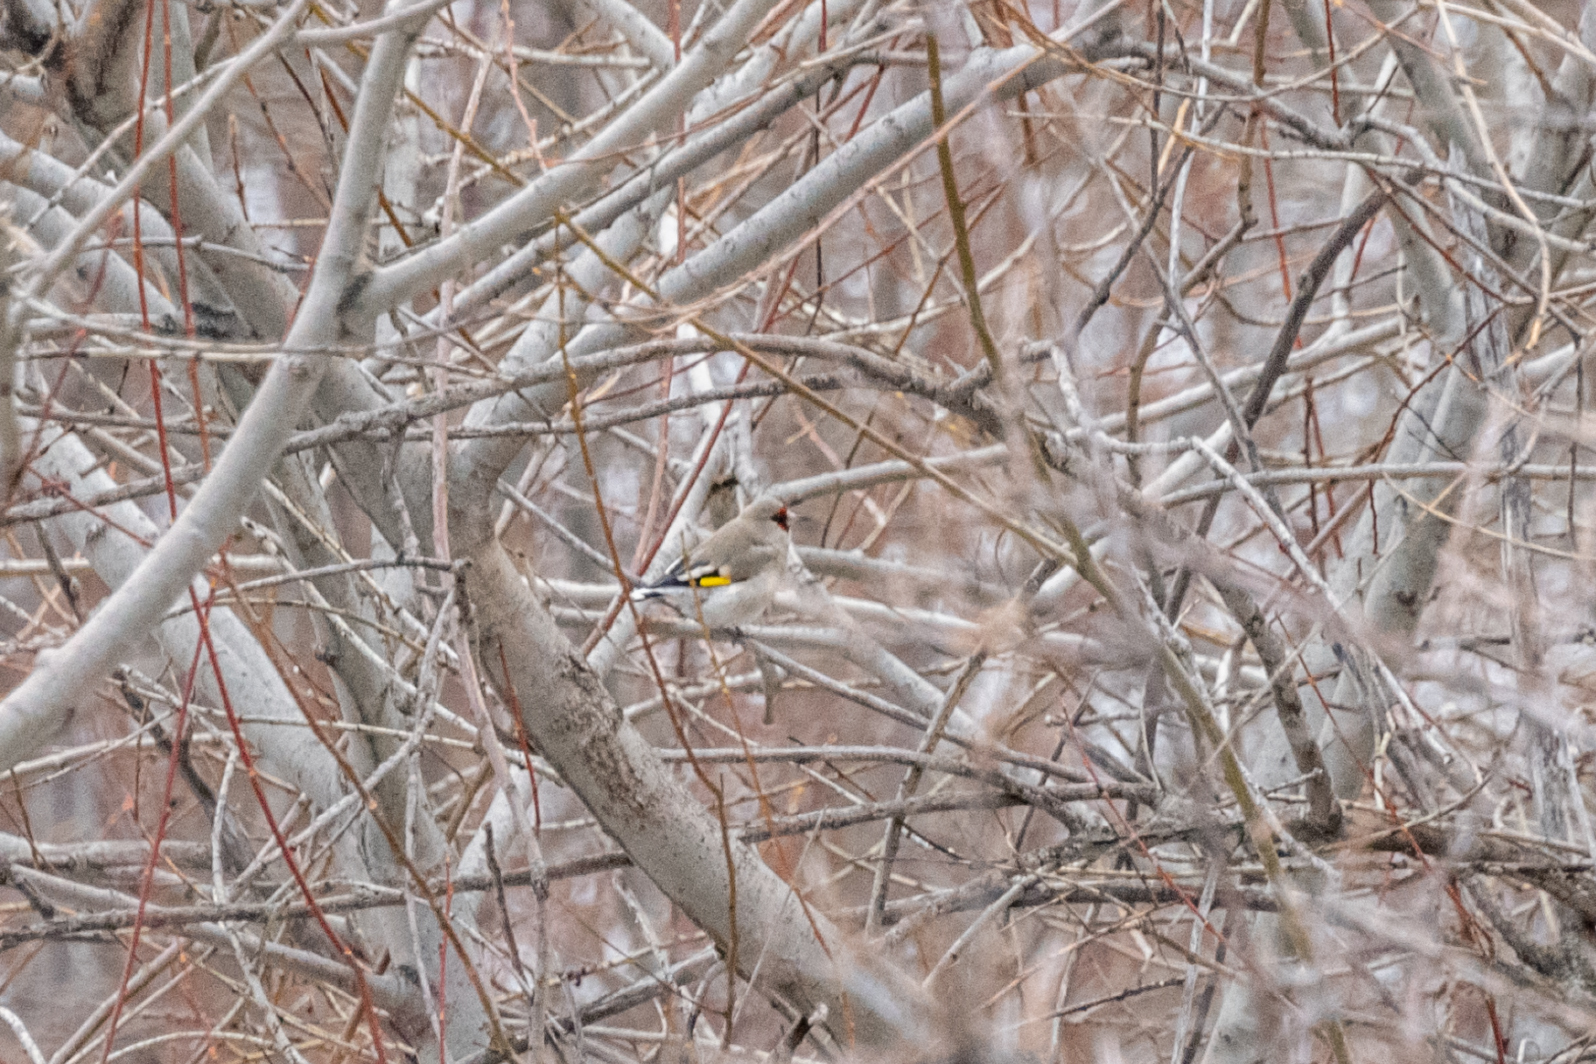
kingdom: Animalia
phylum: Chordata
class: Aves
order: Passeriformes
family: Fringillidae
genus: Carduelis
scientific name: Carduelis carduelis
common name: European goldfinch
